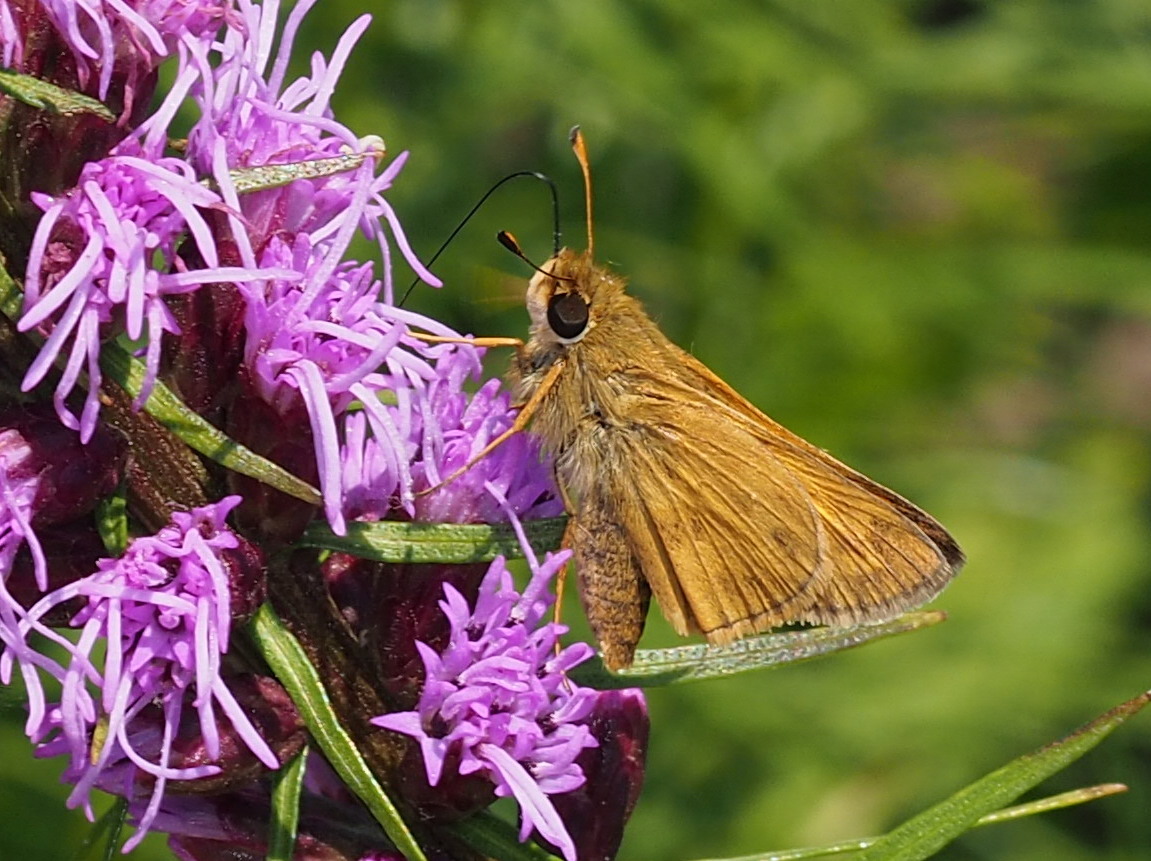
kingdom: Animalia
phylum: Arthropoda
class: Insecta
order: Lepidoptera
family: Hesperiidae
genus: Atalopedes
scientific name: Atalopedes
